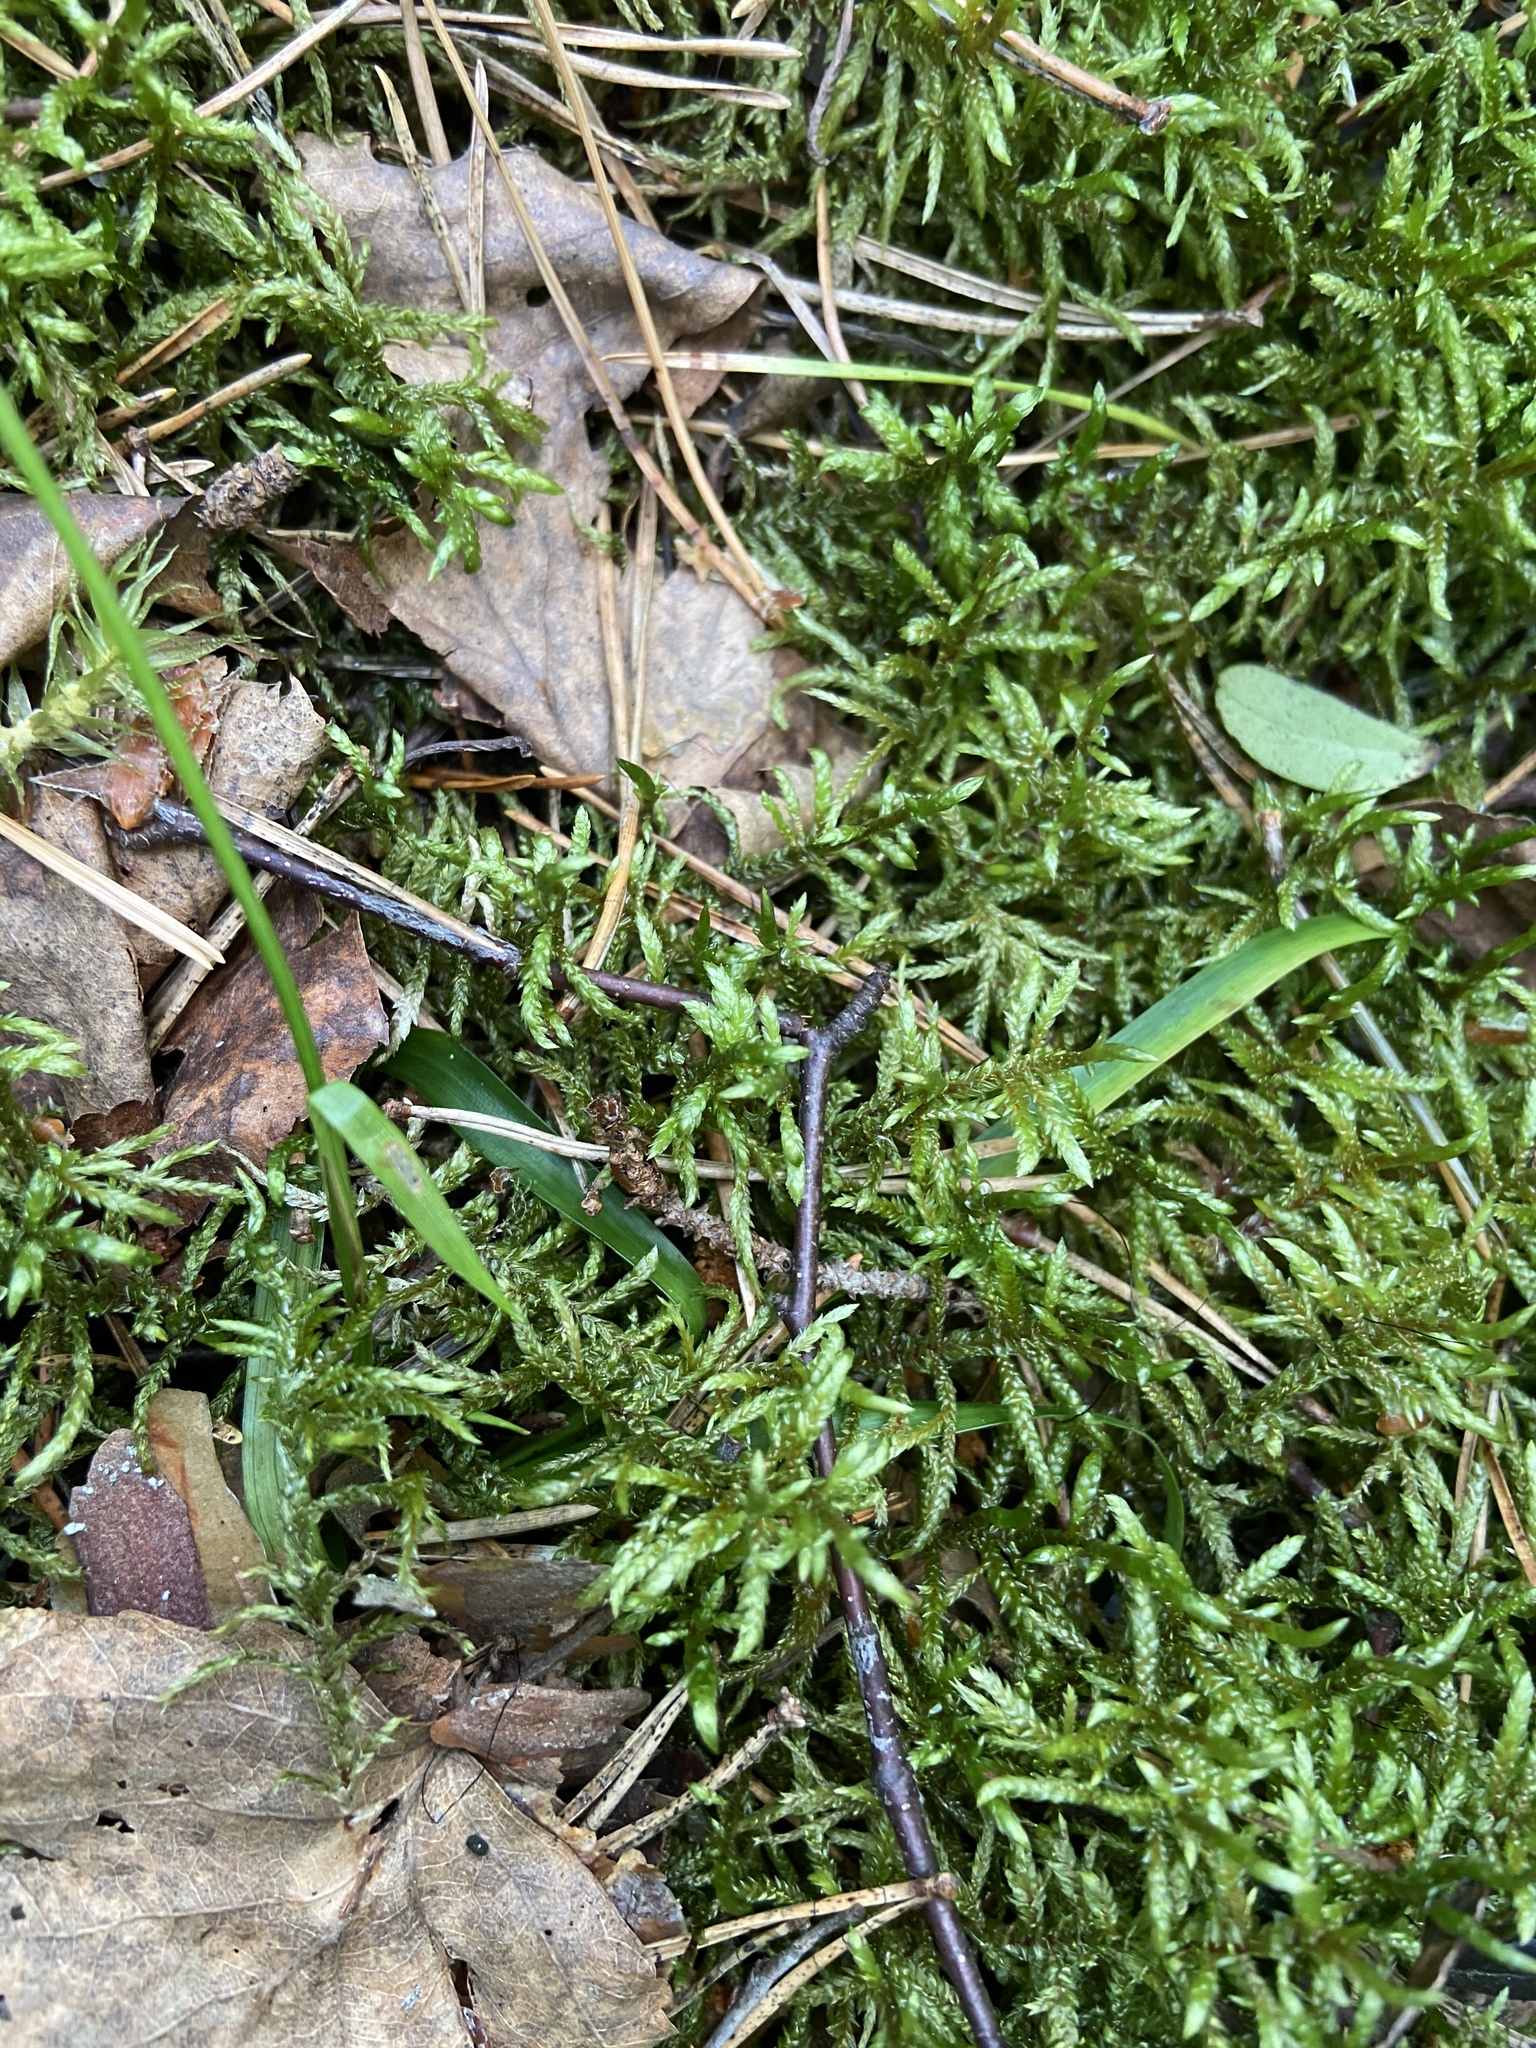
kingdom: Plantae
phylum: Bryophyta
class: Bryopsida
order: Hypnales
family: Hylocomiaceae
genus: Pleurozium
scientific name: Pleurozium schreberi
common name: Red-stemmed feather moss
